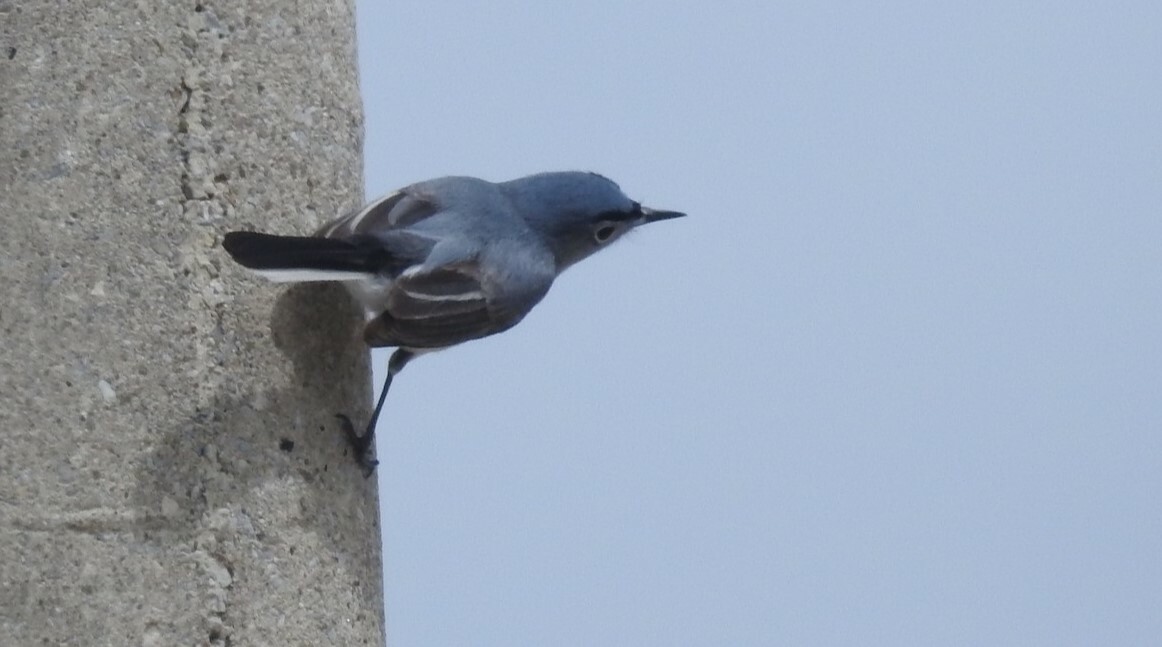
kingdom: Animalia
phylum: Chordata
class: Aves
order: Passeriformes
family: Polioptilidae
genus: Polioptila
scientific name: Polioptila caerulea
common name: Blue-gray gnatcatcher
